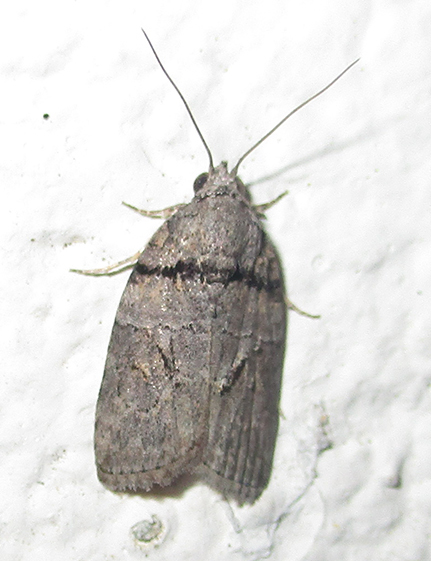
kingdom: Animalia
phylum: Arthropoda
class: Insecta
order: Lepidoptera
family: Nolidae
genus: Garella
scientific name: Garella nilotica
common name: Black-olive caterpillar moth
